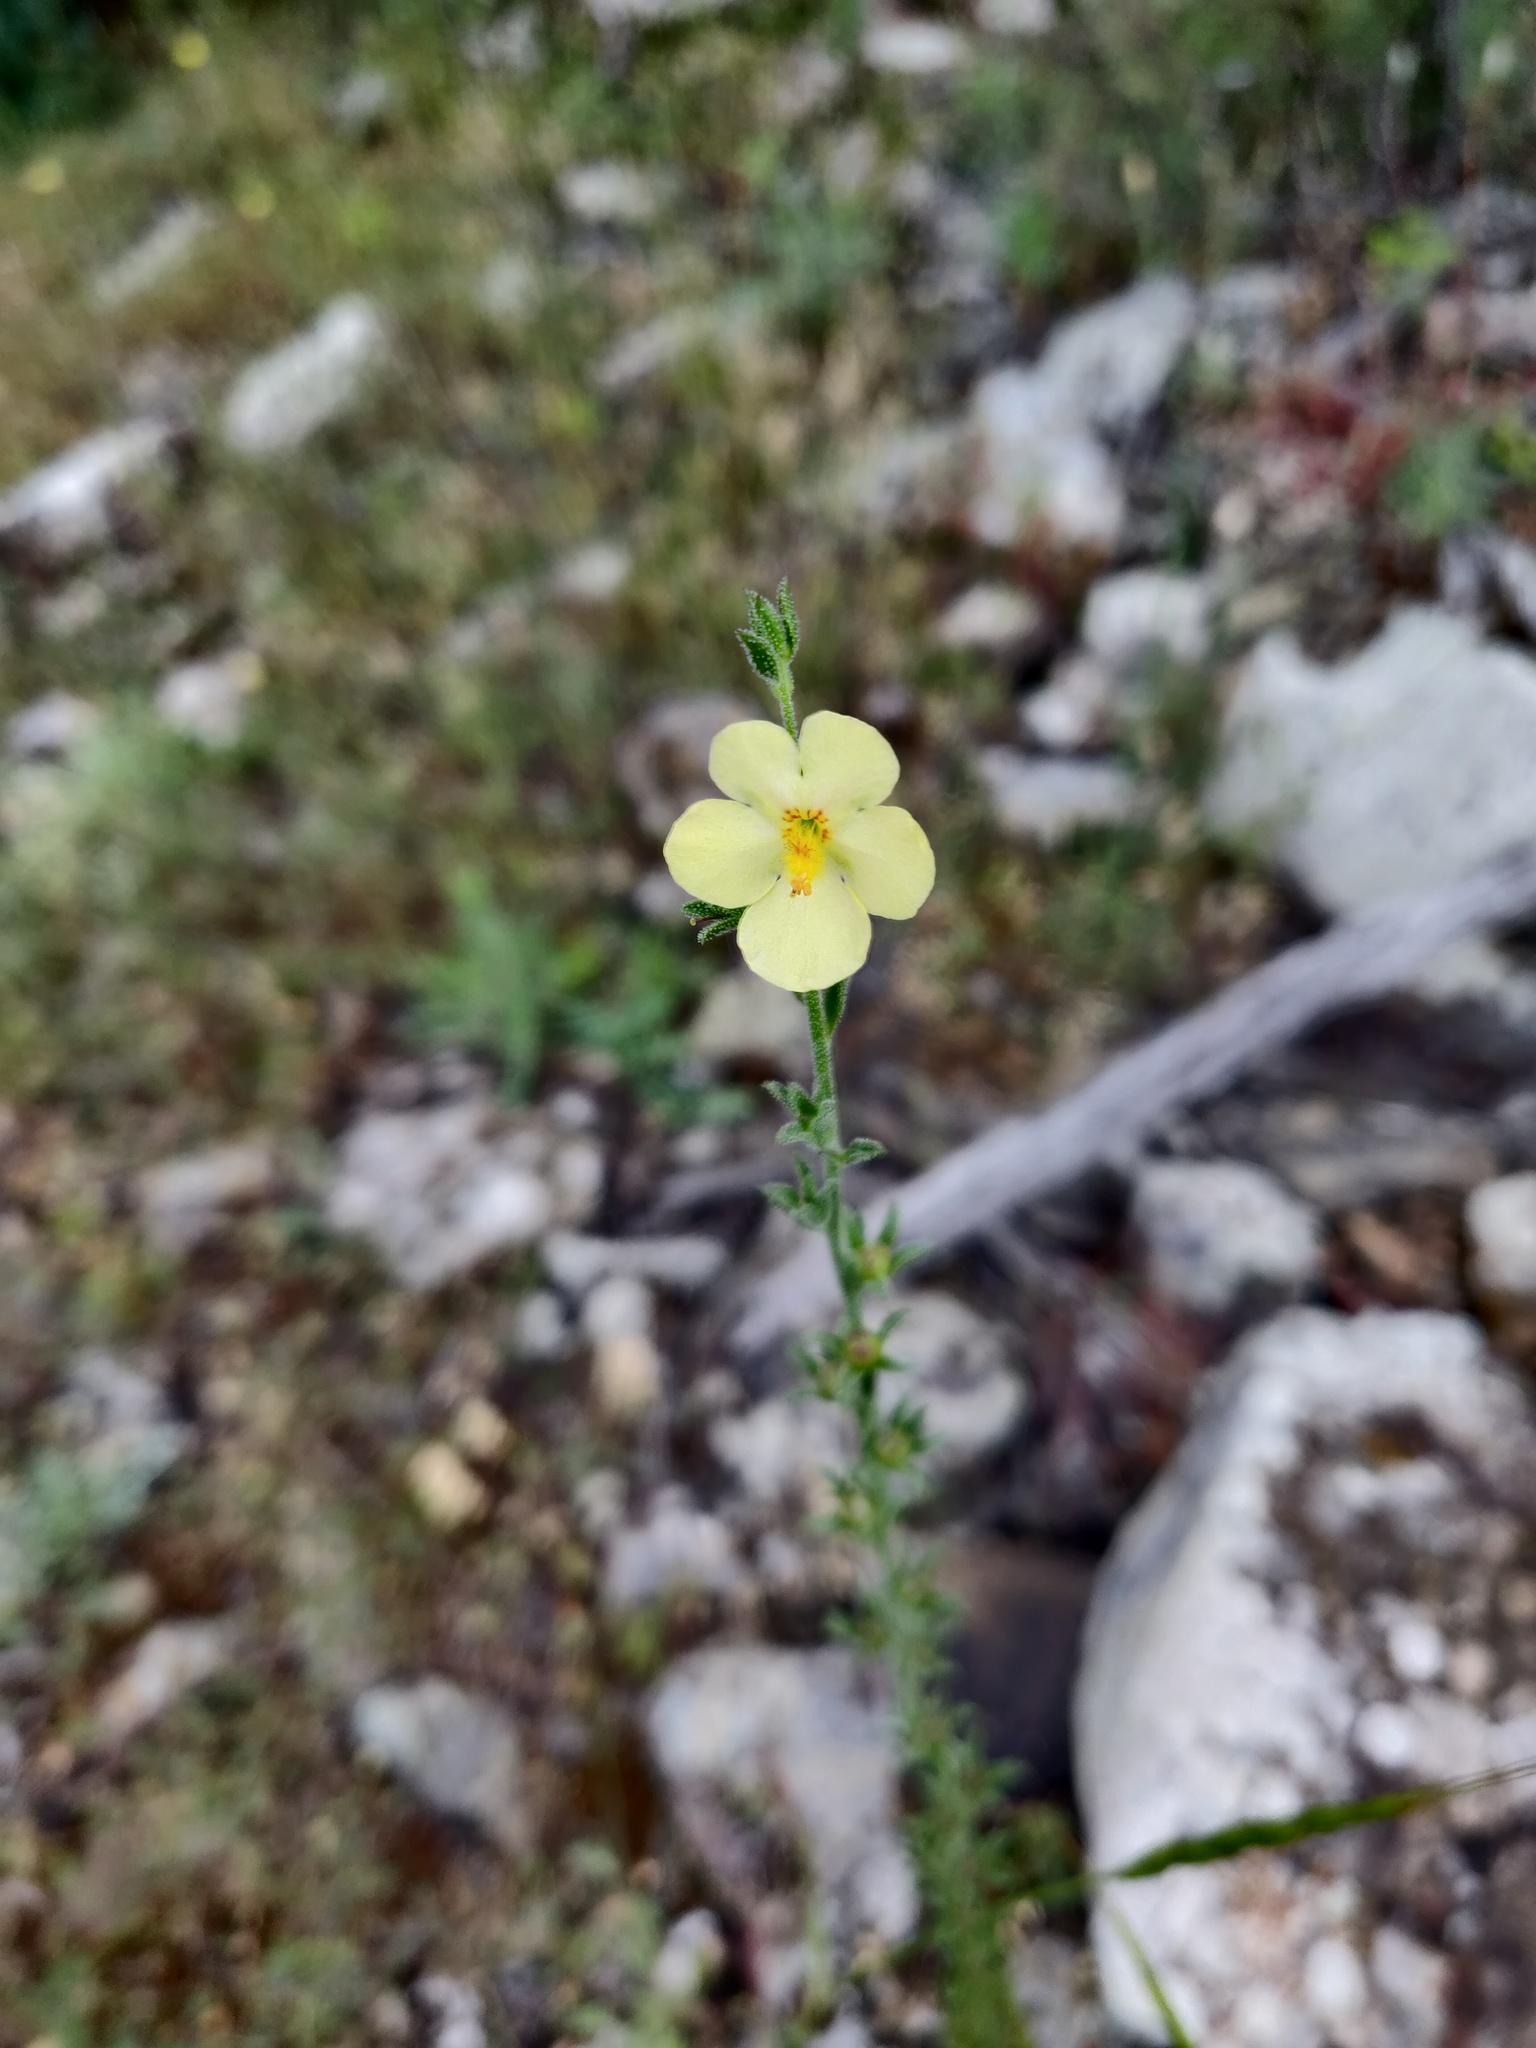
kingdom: Plantae
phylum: Tracheophyta
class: Magnoliopsida
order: Lamiales
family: Scrophulariaceae
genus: Verbascum
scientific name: Verbascum orientale
